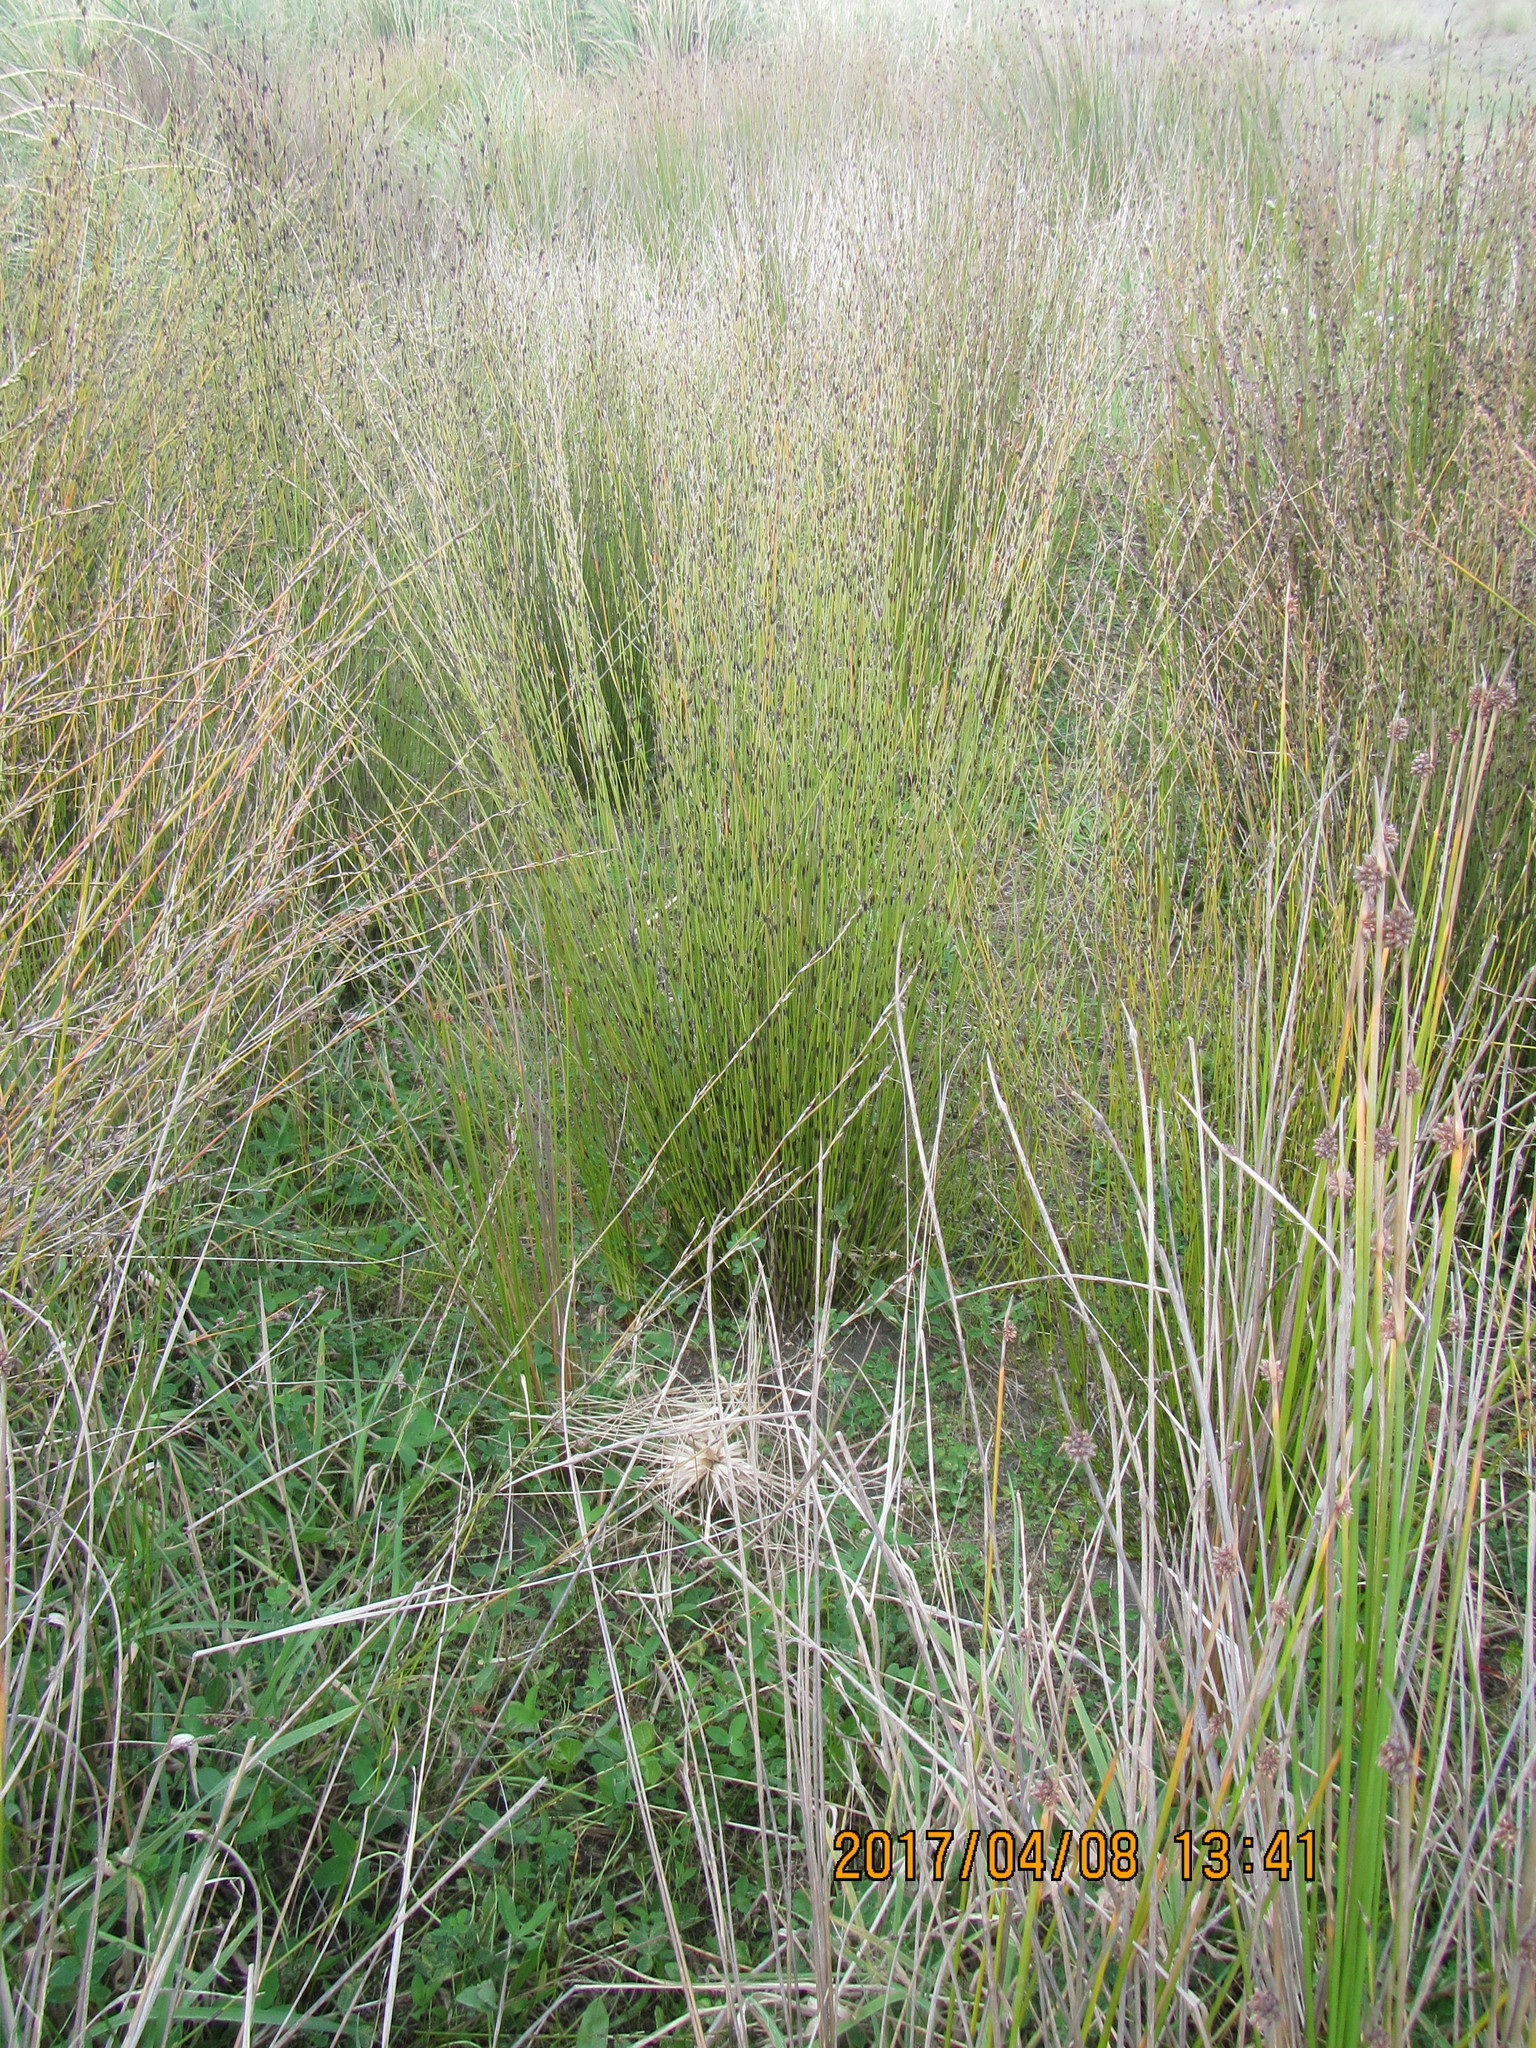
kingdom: Plantae
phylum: Tracheophyta
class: Liliopsida
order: Poales
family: Restionaceae
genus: Apodasmia
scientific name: Apodasmia similis
